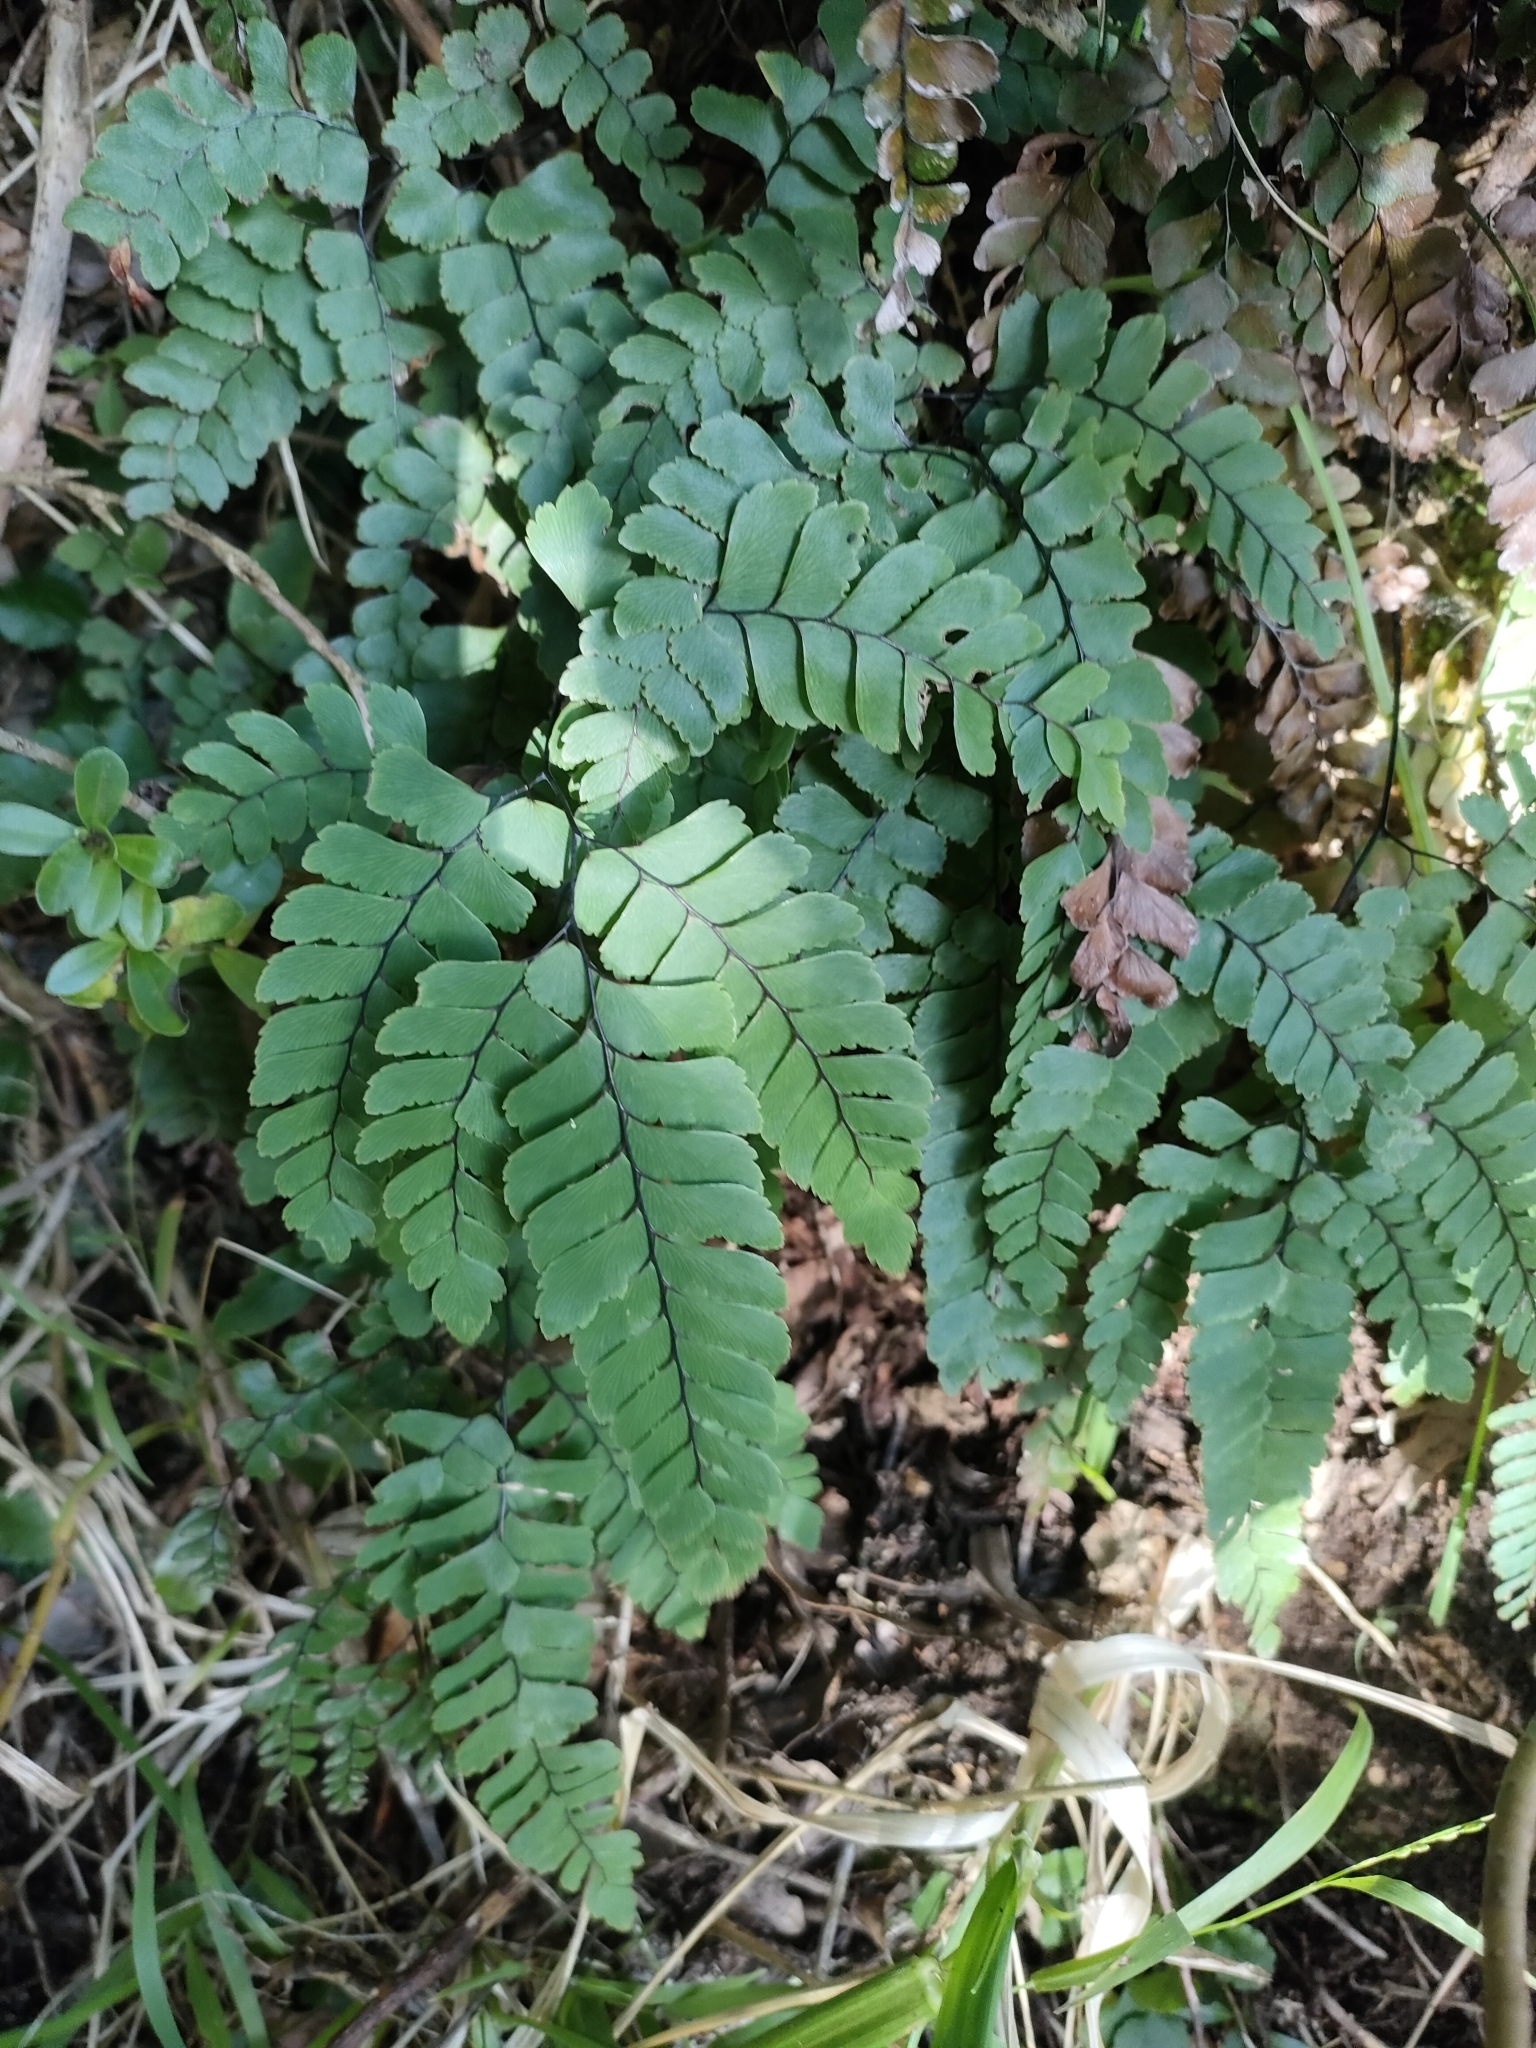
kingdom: Plantae
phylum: Tracheophyta
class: Polypodiopsida
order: Polypodiales
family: Pteridaceae
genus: Adiantum
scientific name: Adiantum cunninghamii
